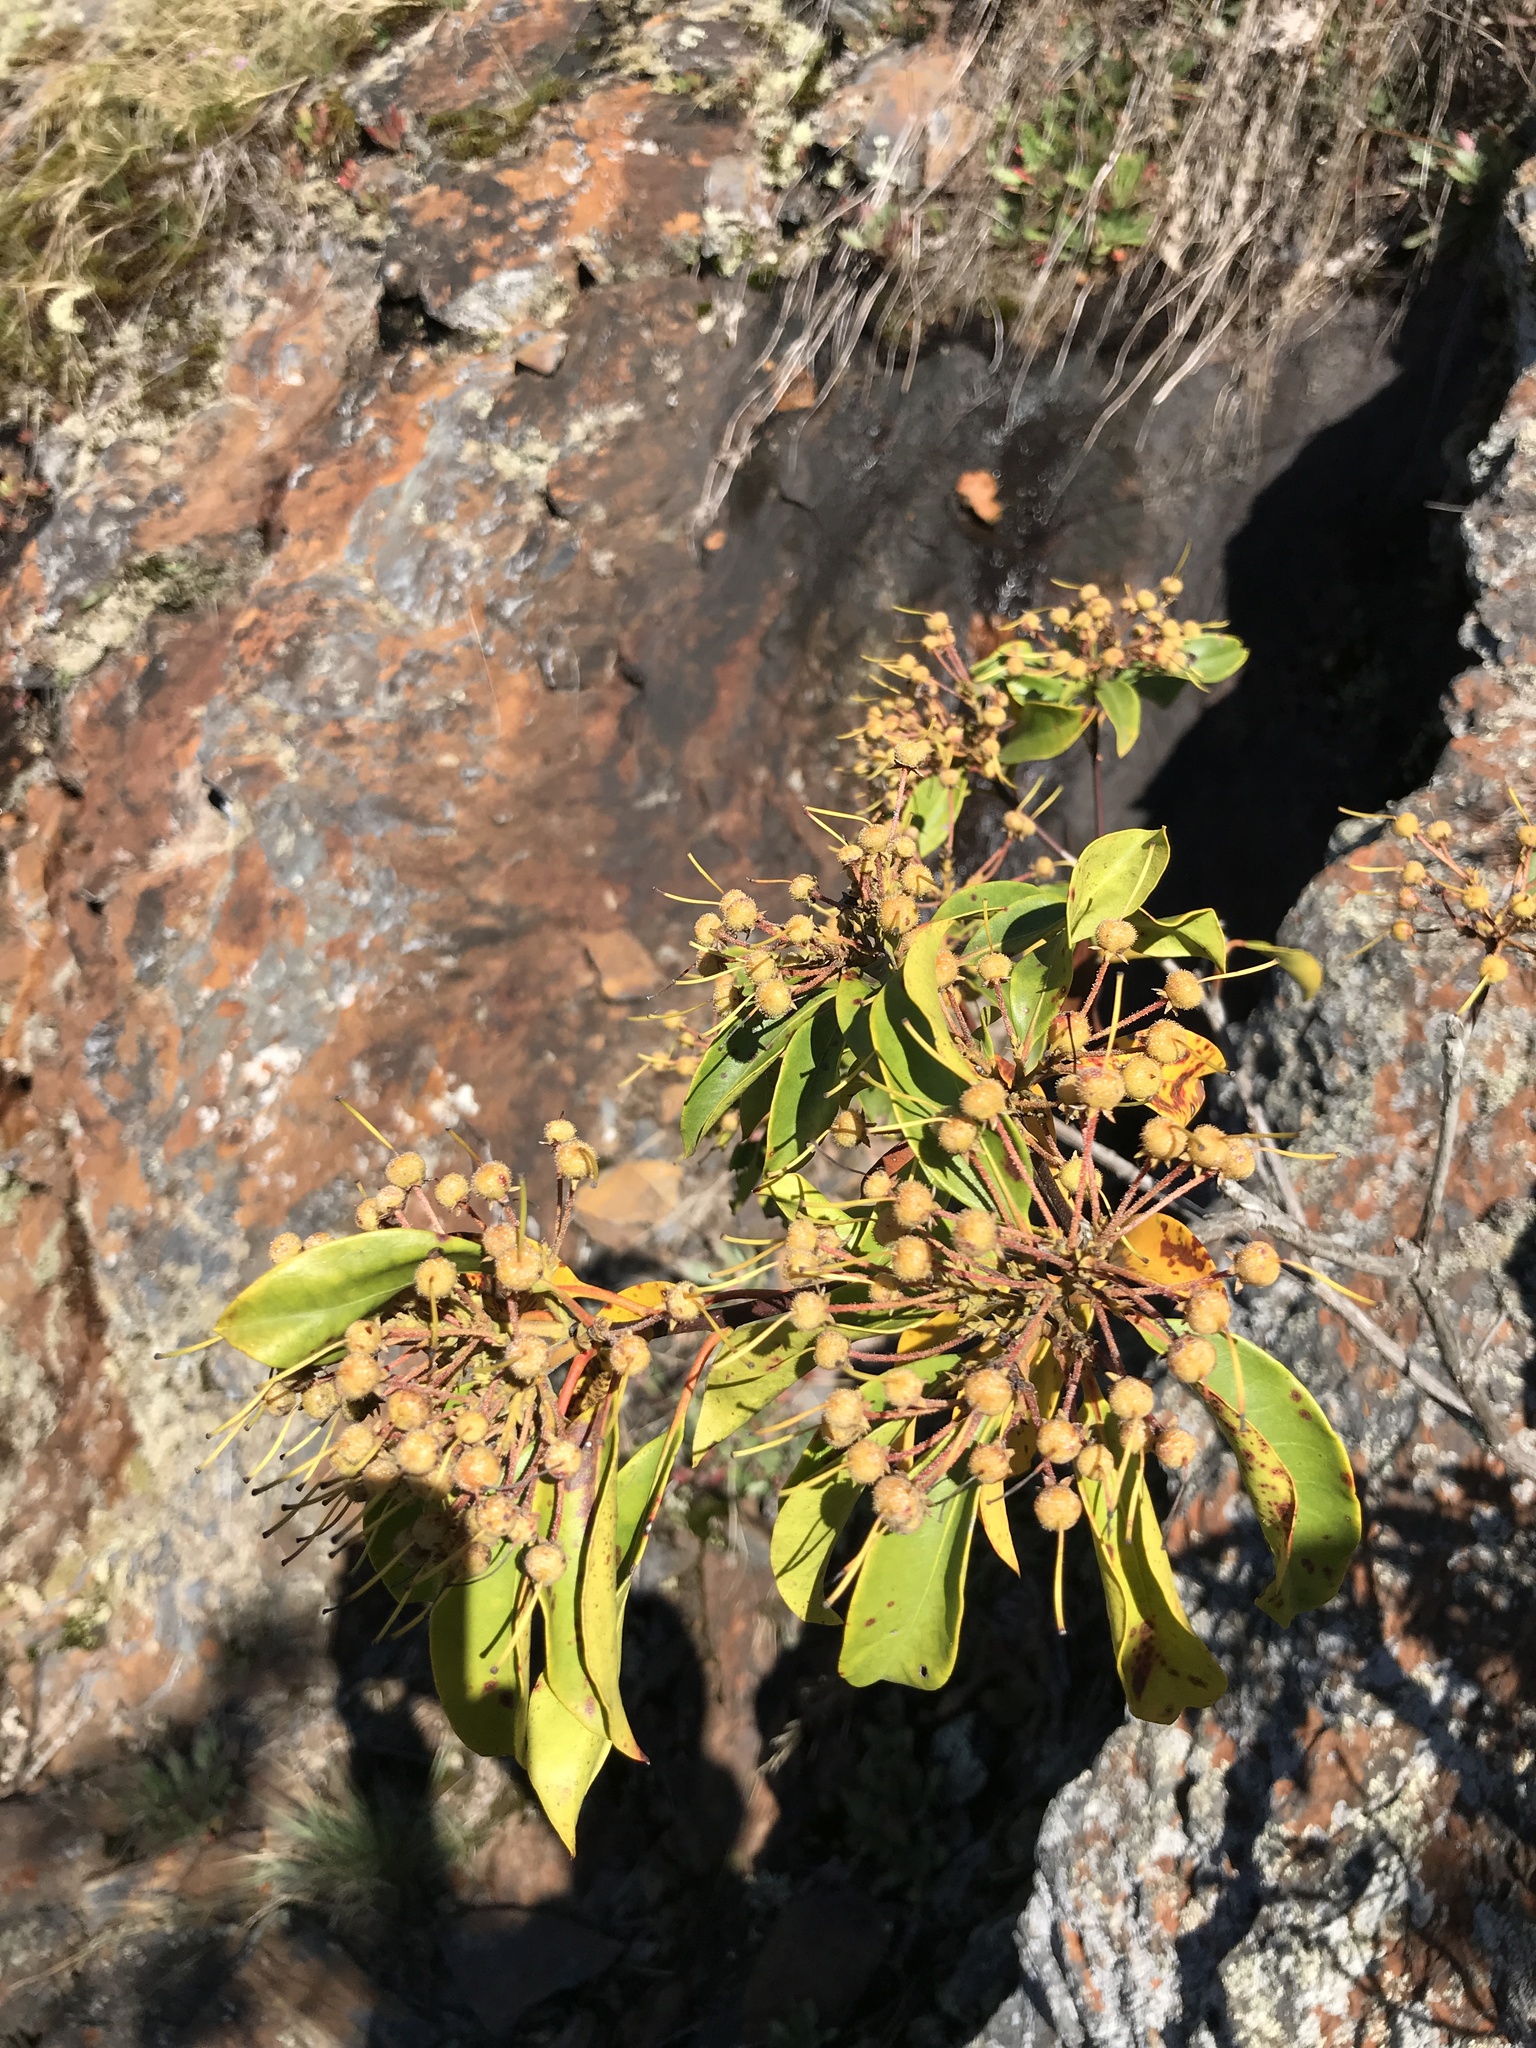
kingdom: Plantae
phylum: Tracheophyta
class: Magnoliopsida
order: Ericales
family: Ericaceae
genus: Kalmia
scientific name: Kalmia latifolia
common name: Mountain-laurel
